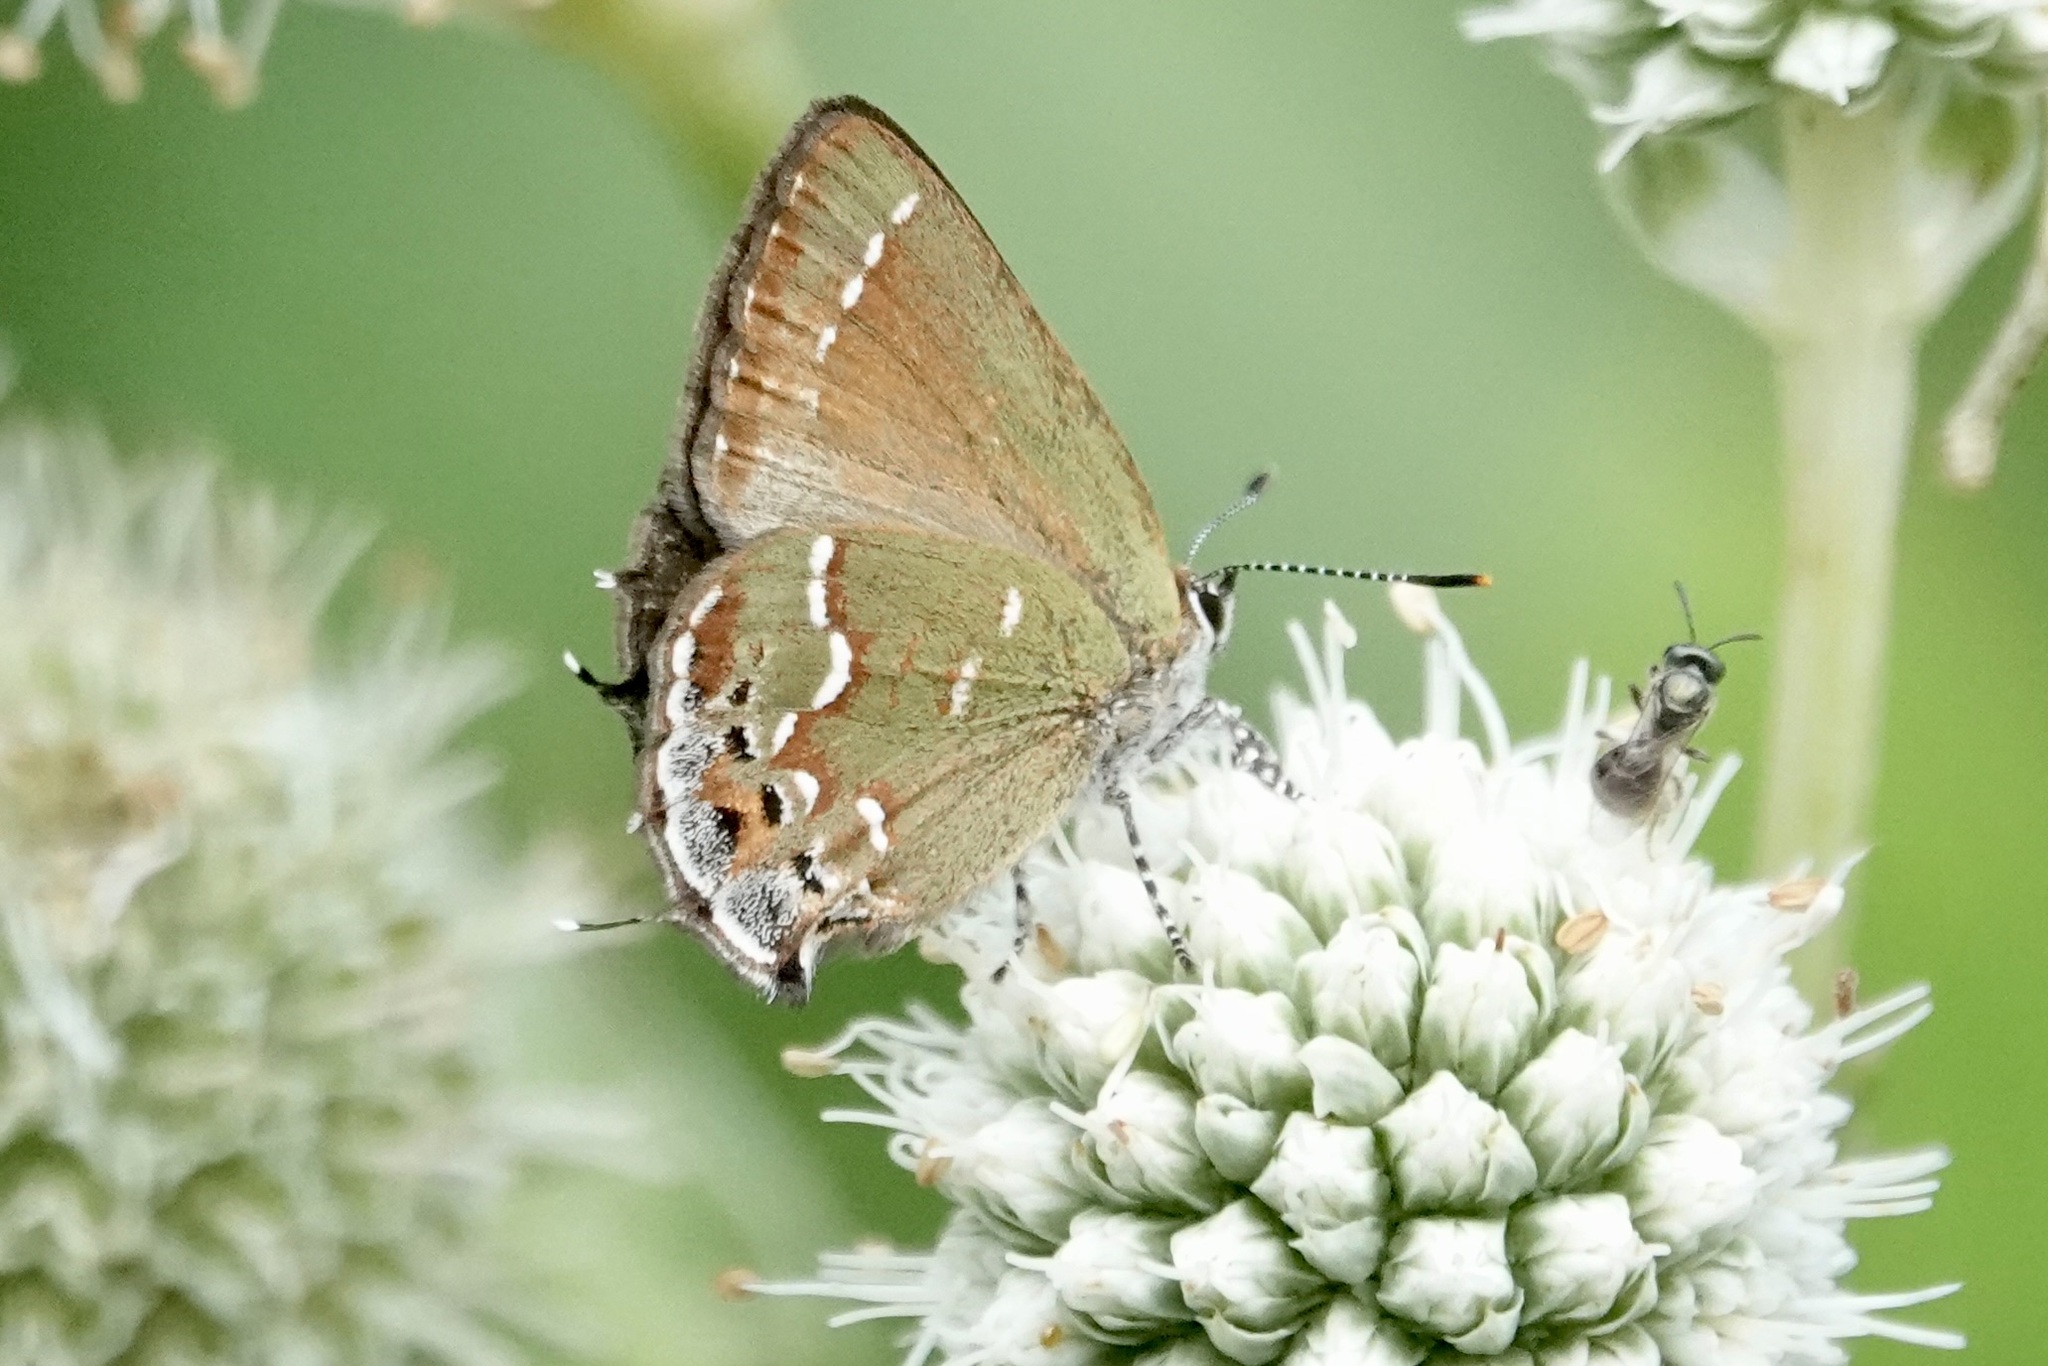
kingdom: Animalia
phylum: Arthropoda
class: Insecta
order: Lepidoptera
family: Lycaenidae
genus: Mitoura
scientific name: Mitoura gryneus
